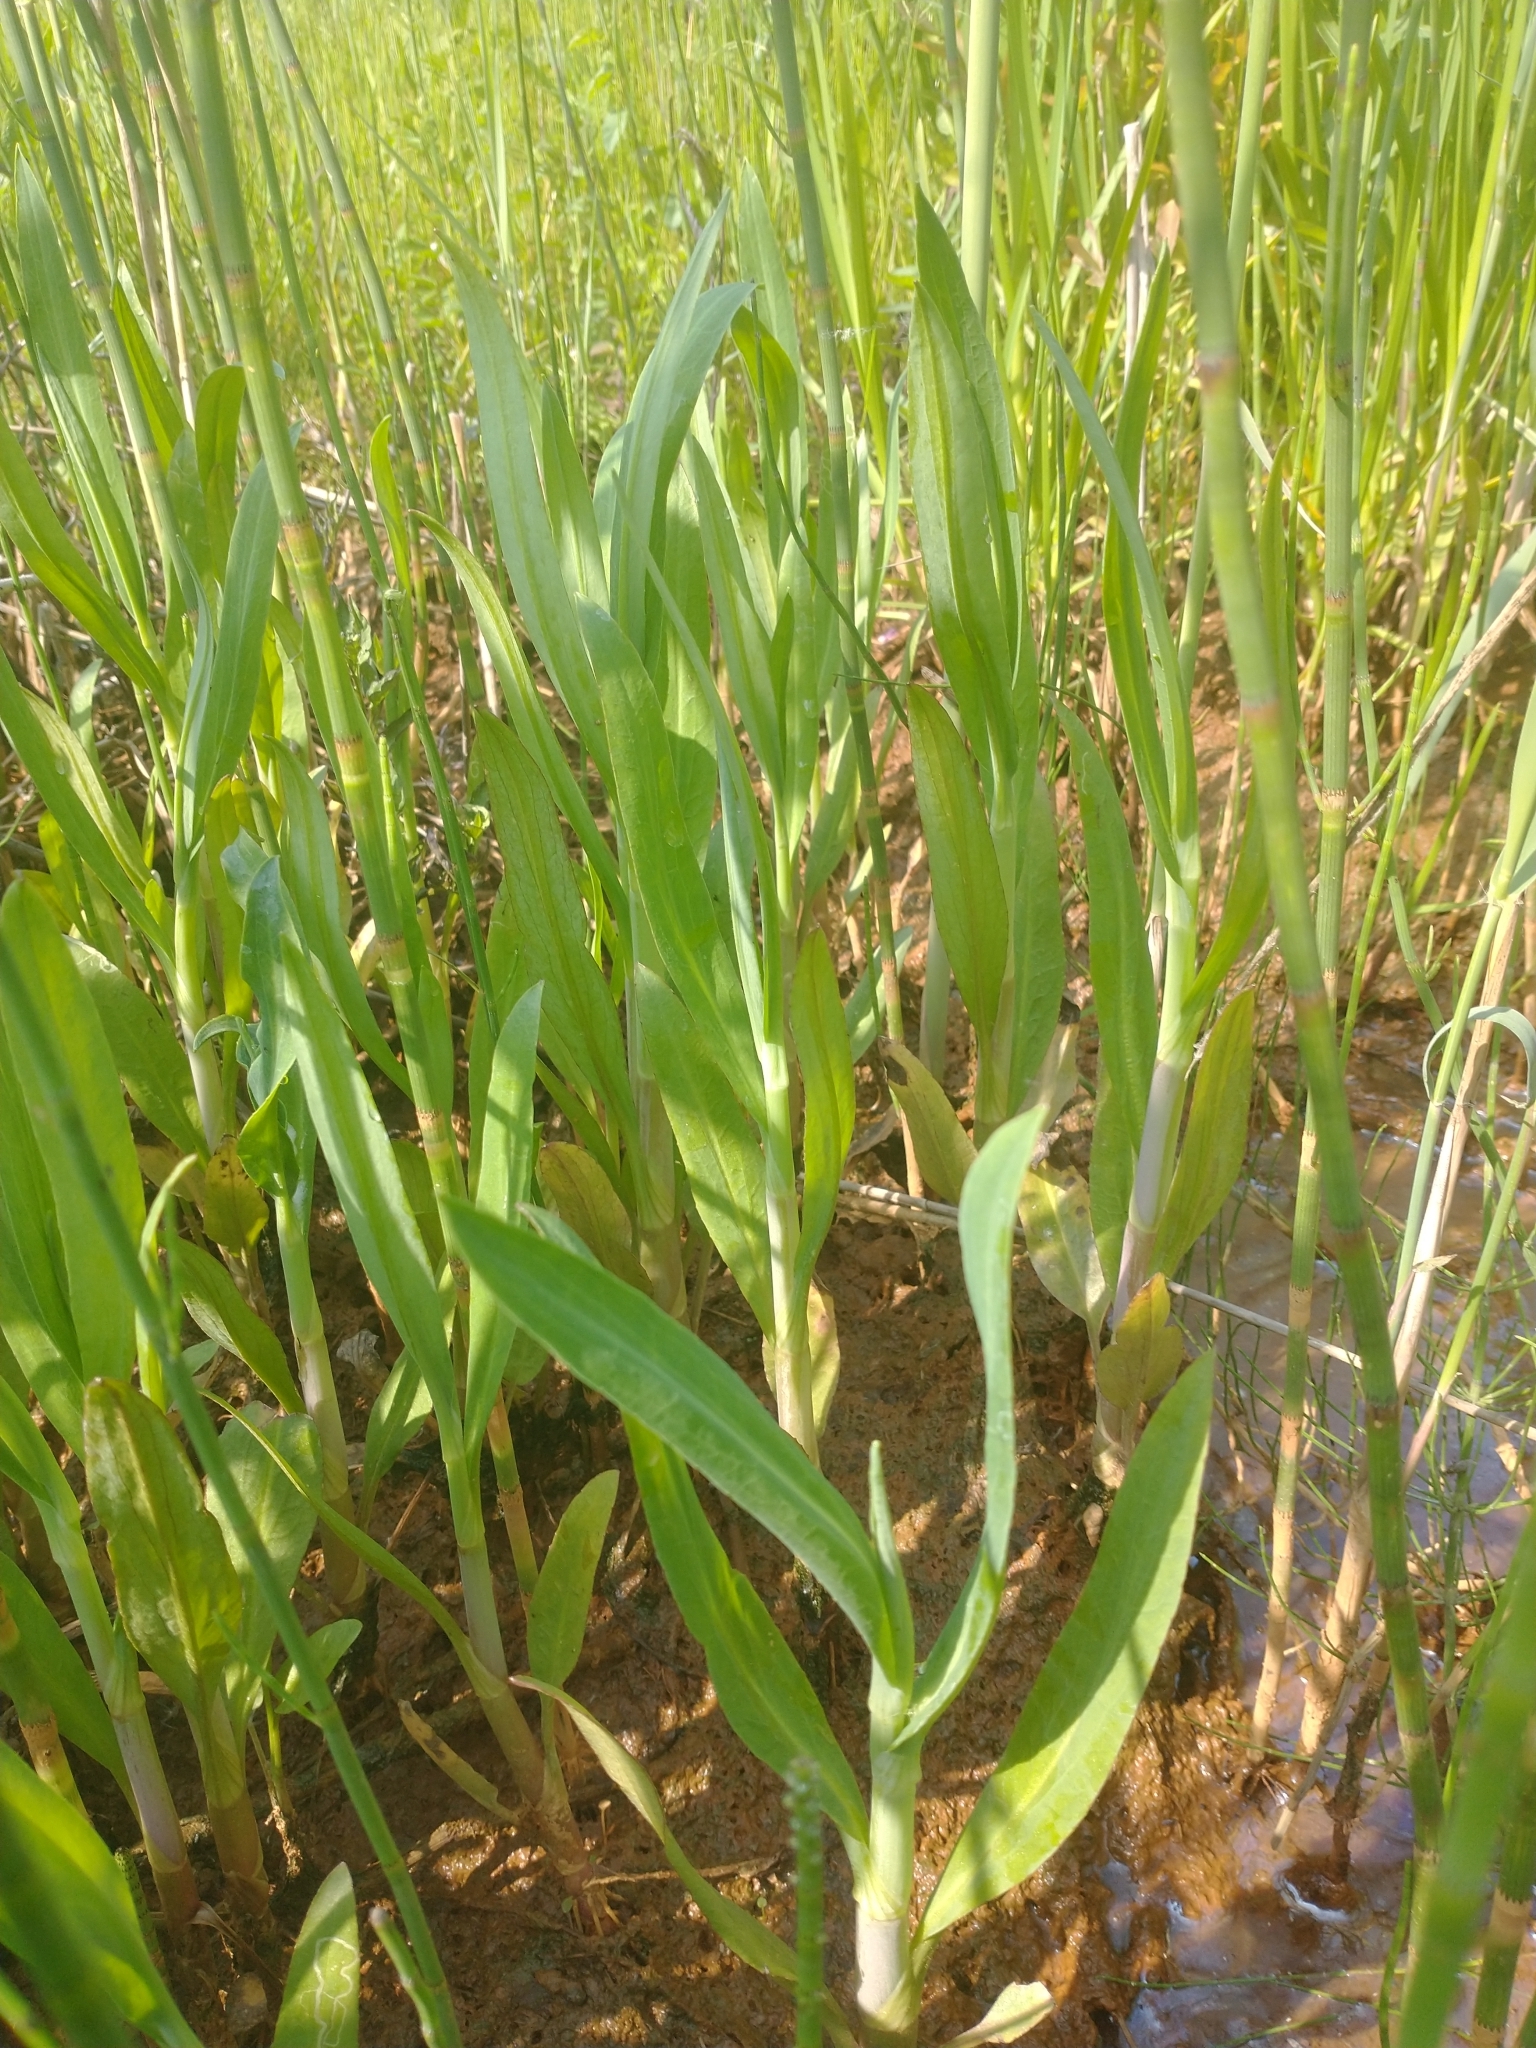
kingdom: Plantae
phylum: Tracheophyta
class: Magnoliopsida
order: Ranunculales
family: Ranunculaceae
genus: Ranunculus
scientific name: Ranunculus lingua
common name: Greater spearwort
